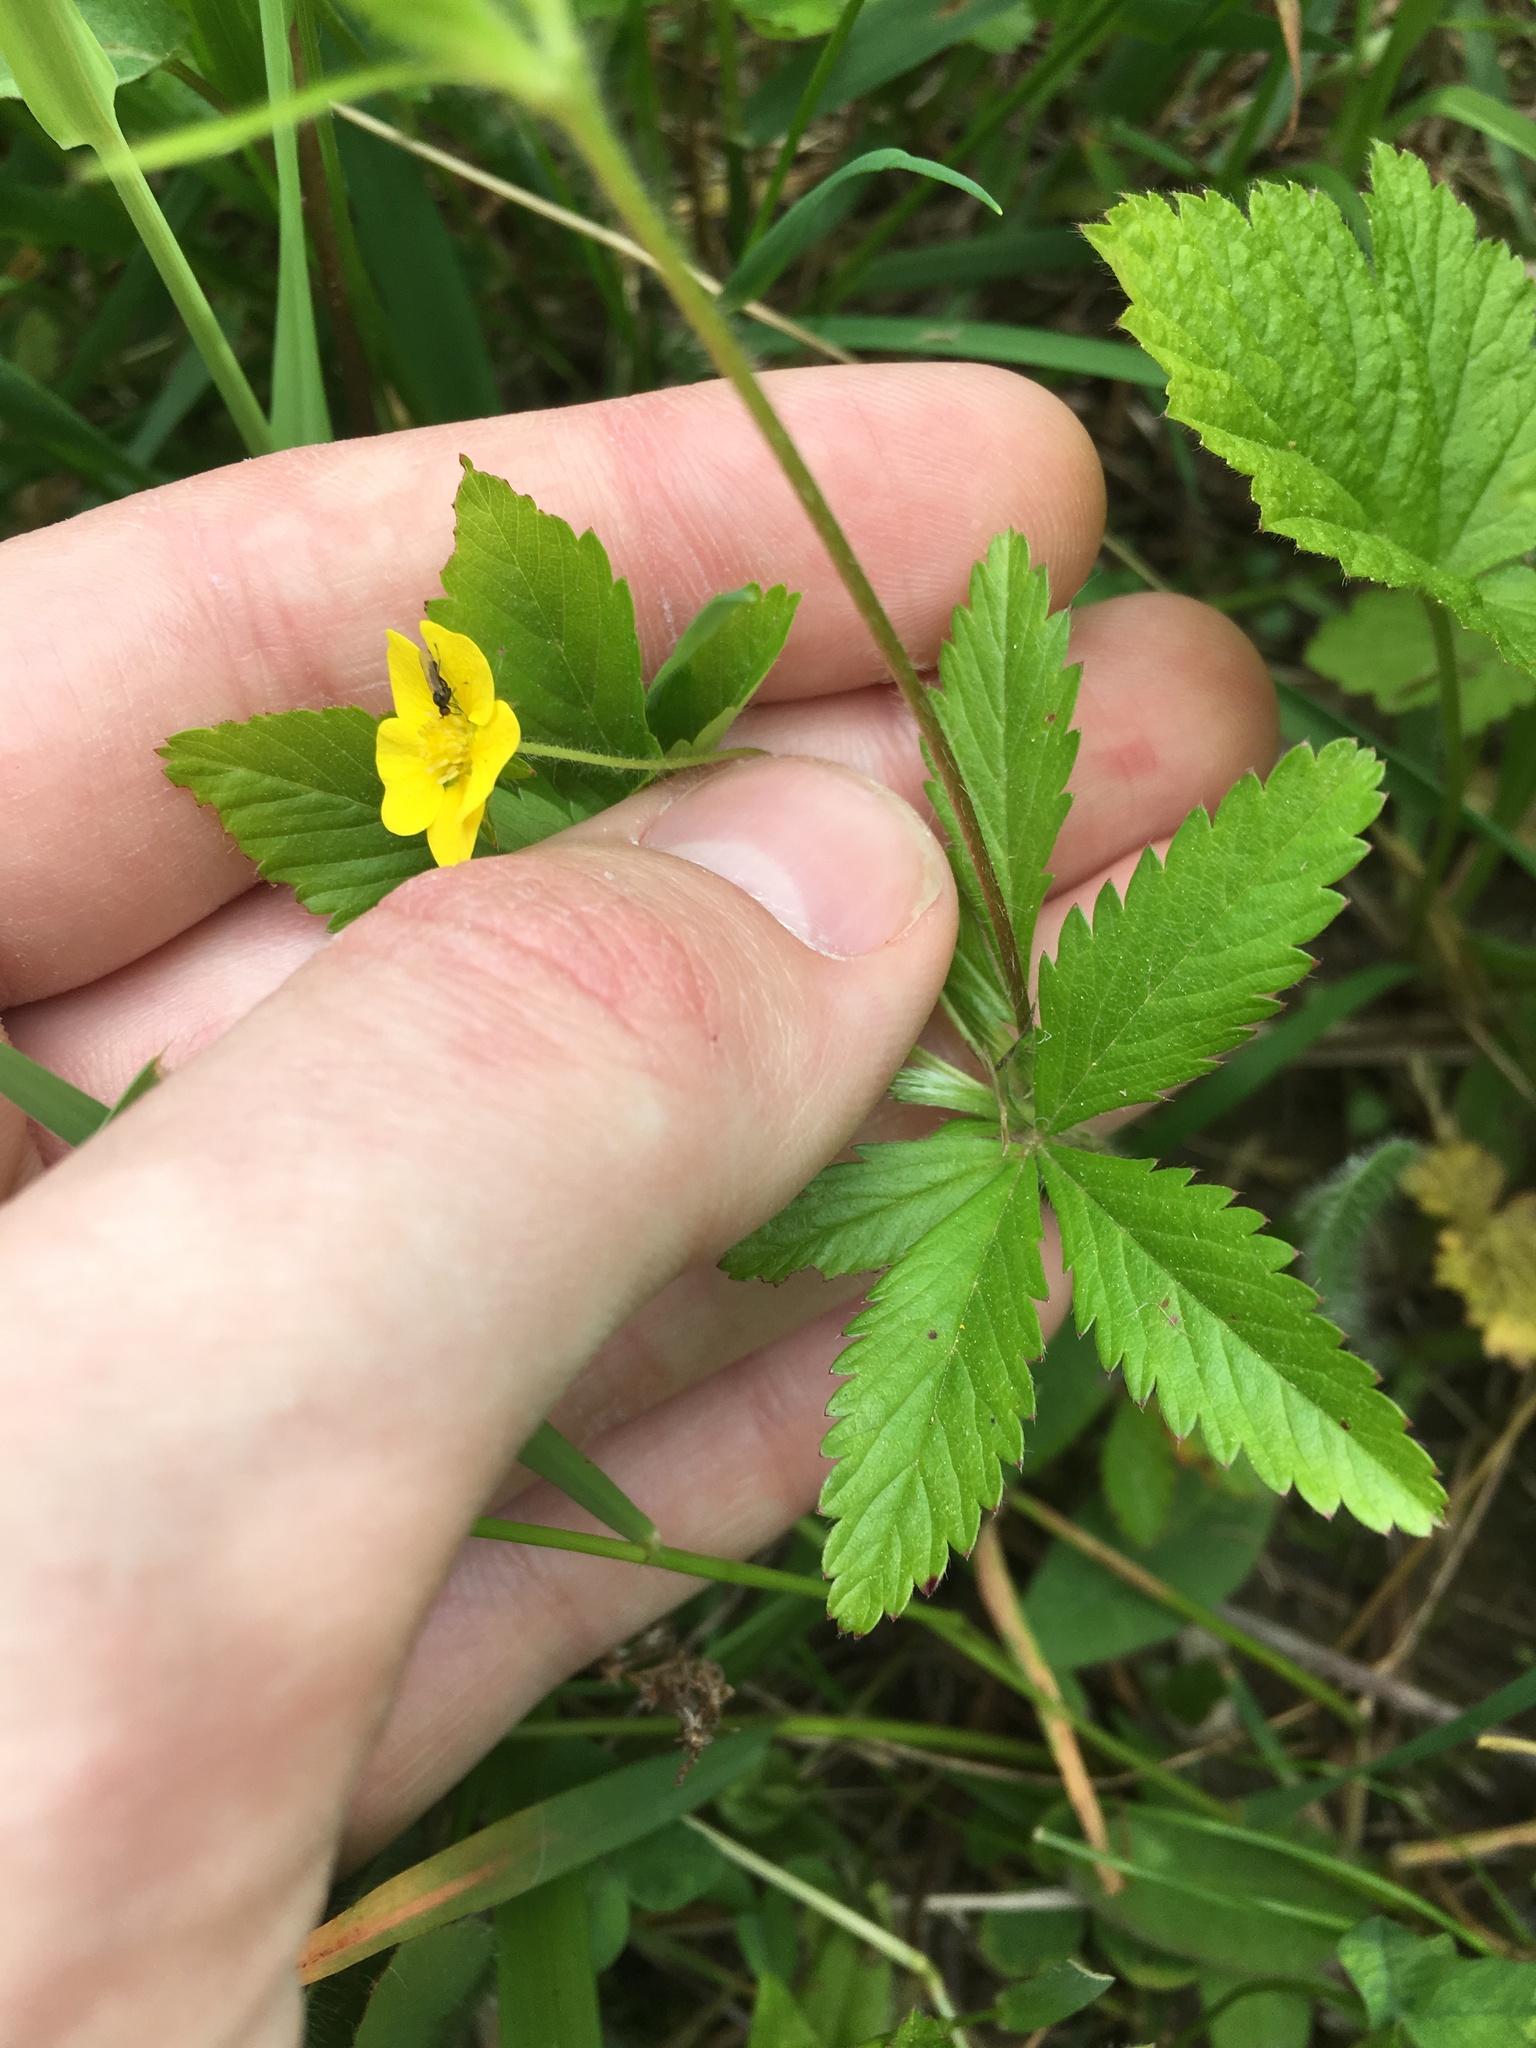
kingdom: Plantae
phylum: Tracheophyta
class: Magnoliopsida
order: Rosales
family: Rosaceae
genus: Potentilla
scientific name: Potentilla simplex
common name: Old field cinquefoil
